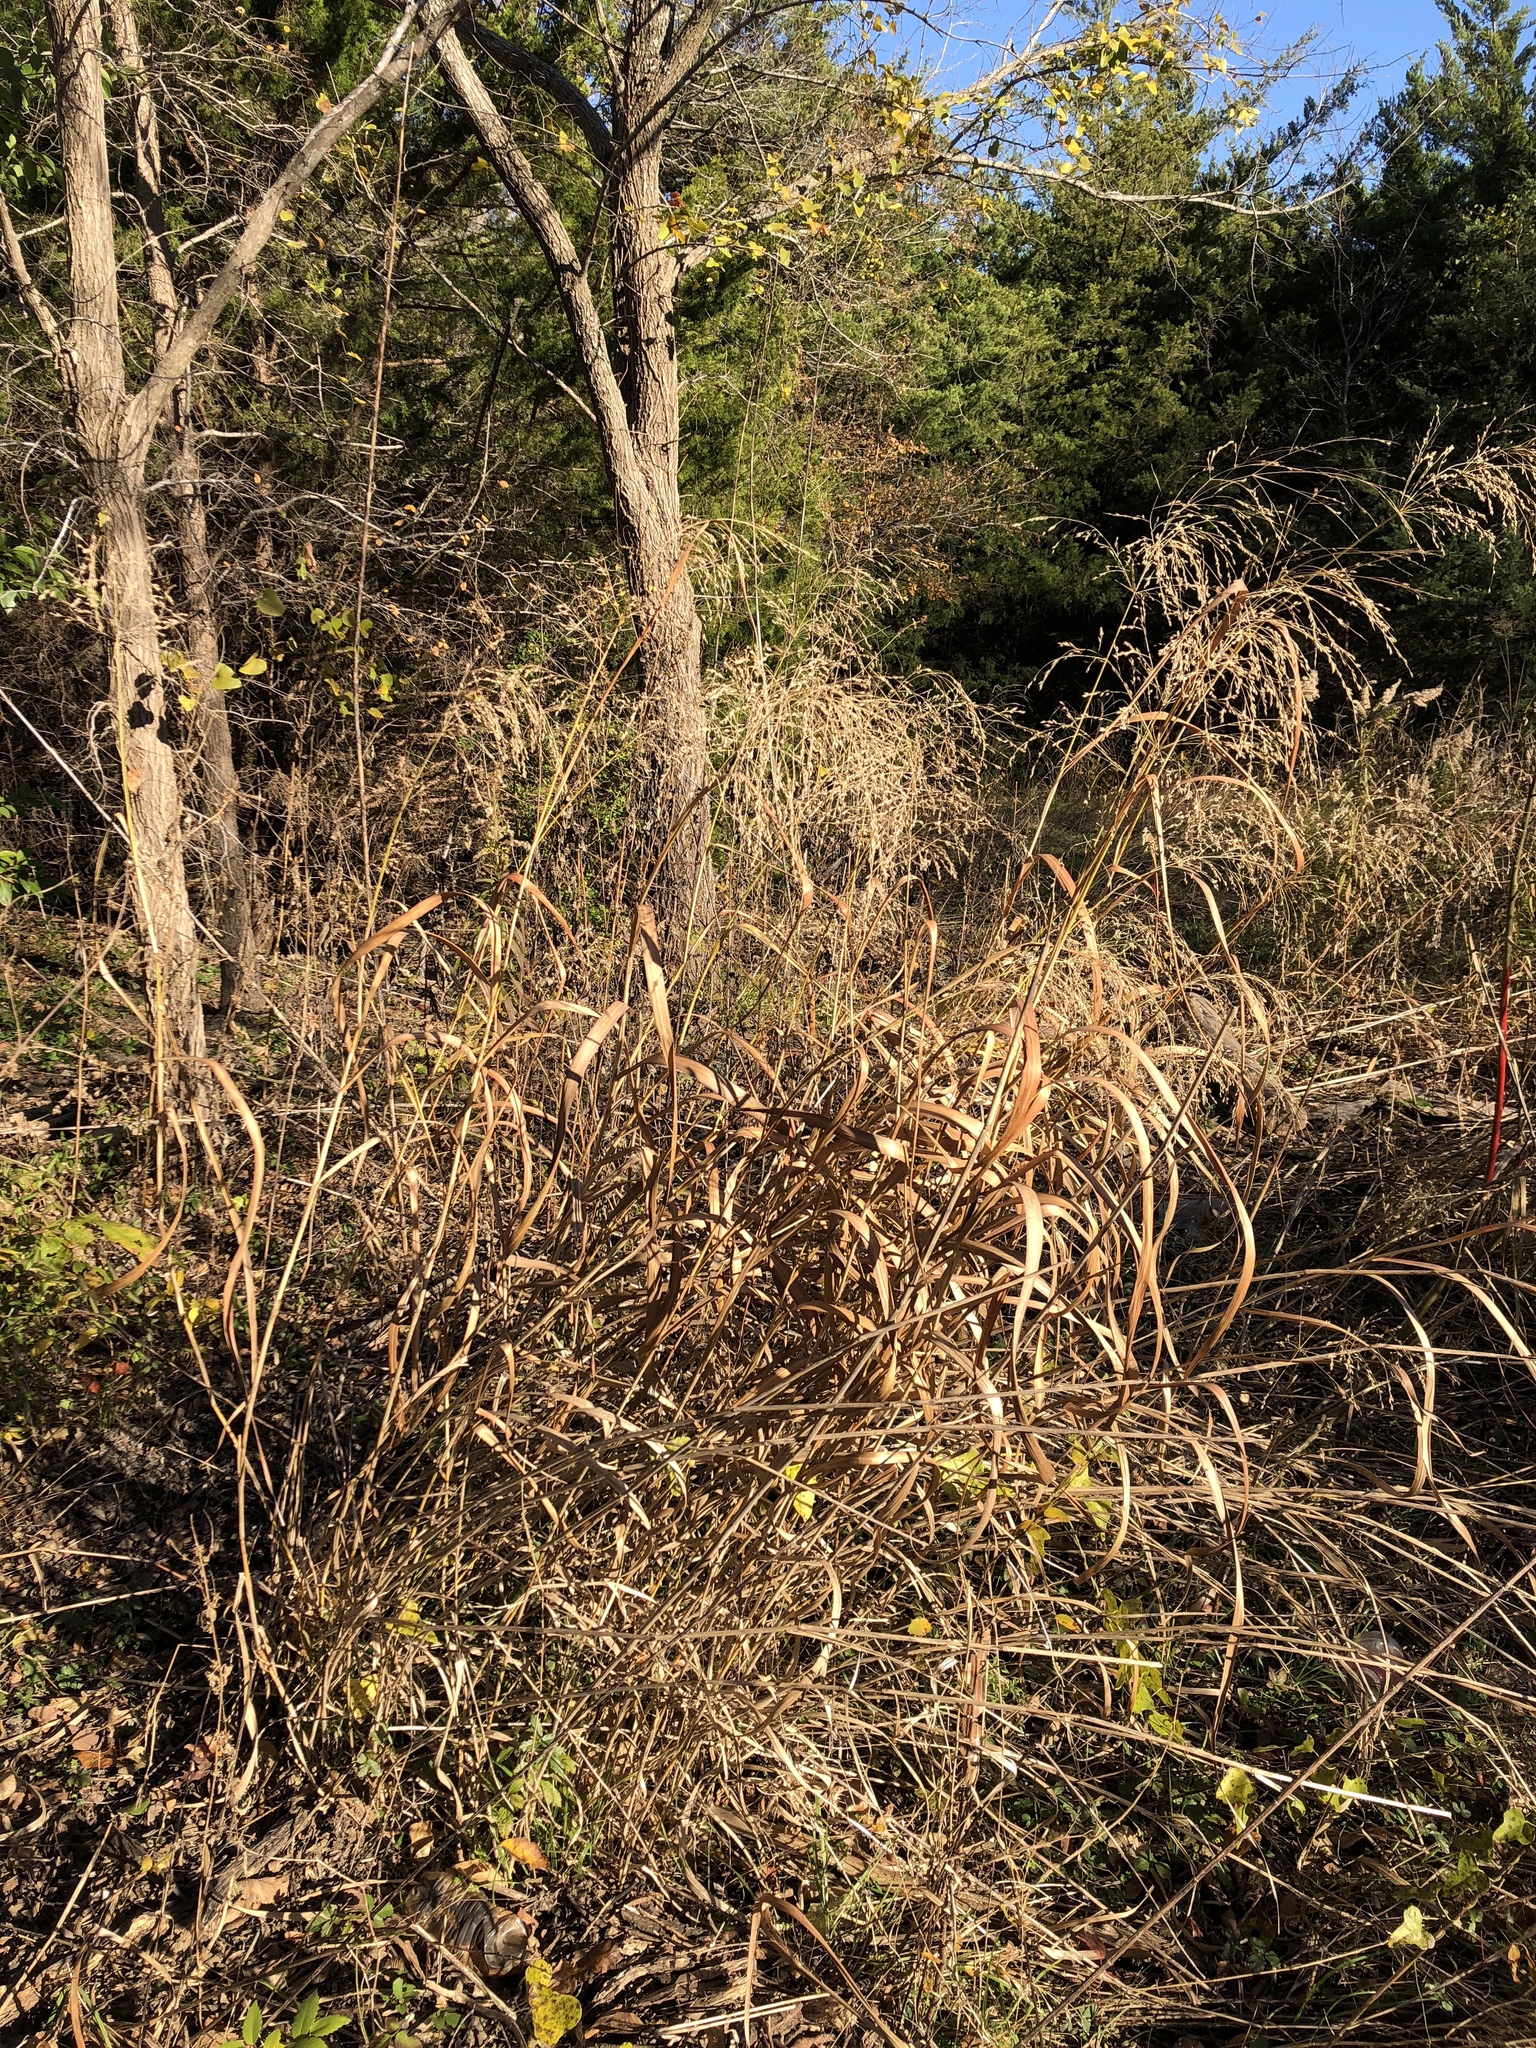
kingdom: Plantae
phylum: Tracheophyta
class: Liliopsida
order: Poales
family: Poaceae
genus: Panicum
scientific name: Panicum virgatum
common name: Switchgrass
